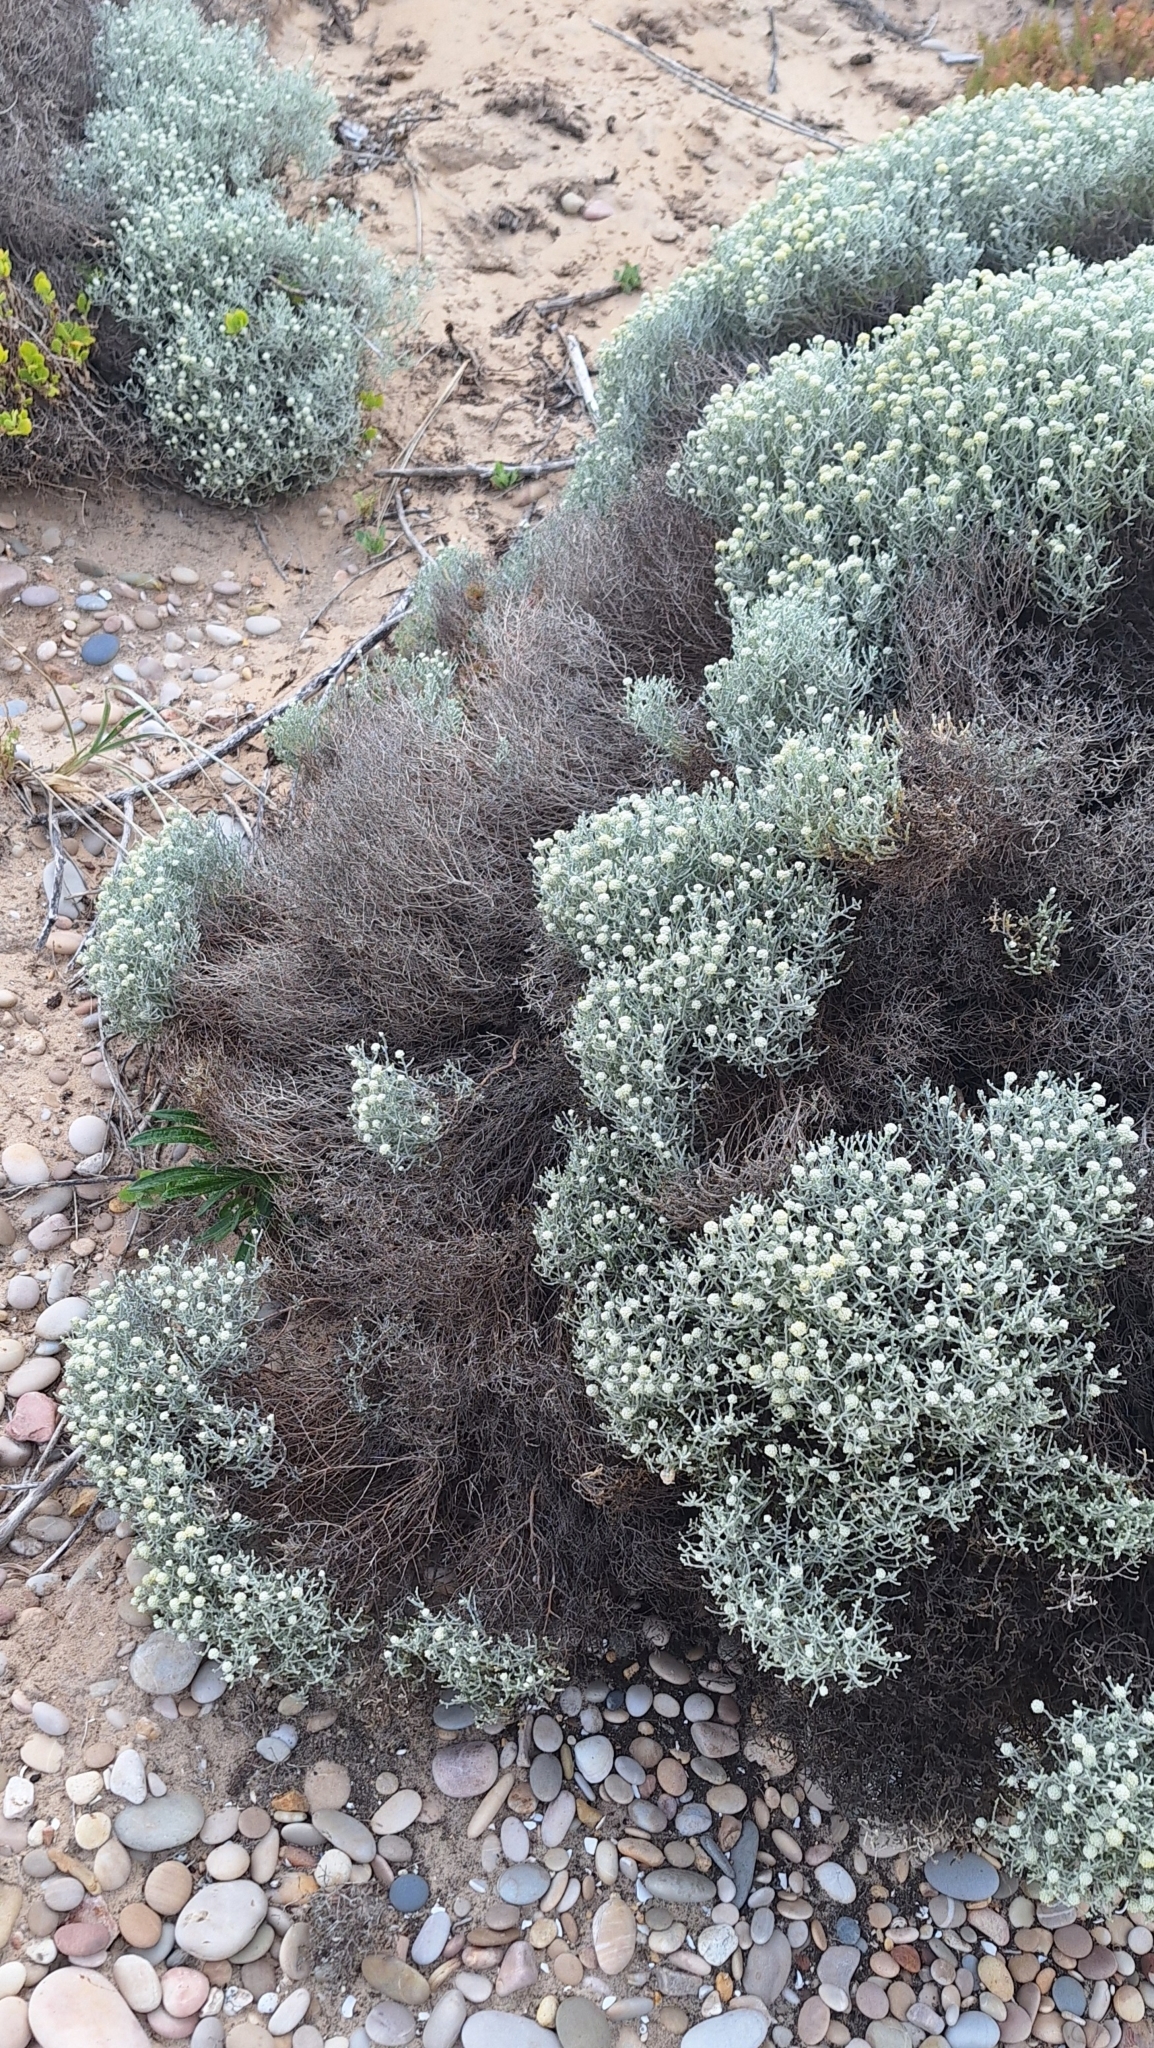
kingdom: Plantae
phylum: Tracheophyta
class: Magnoliopsida
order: Asterales
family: Asteraceae
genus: Calocephalus
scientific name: Calocephalus brownii
